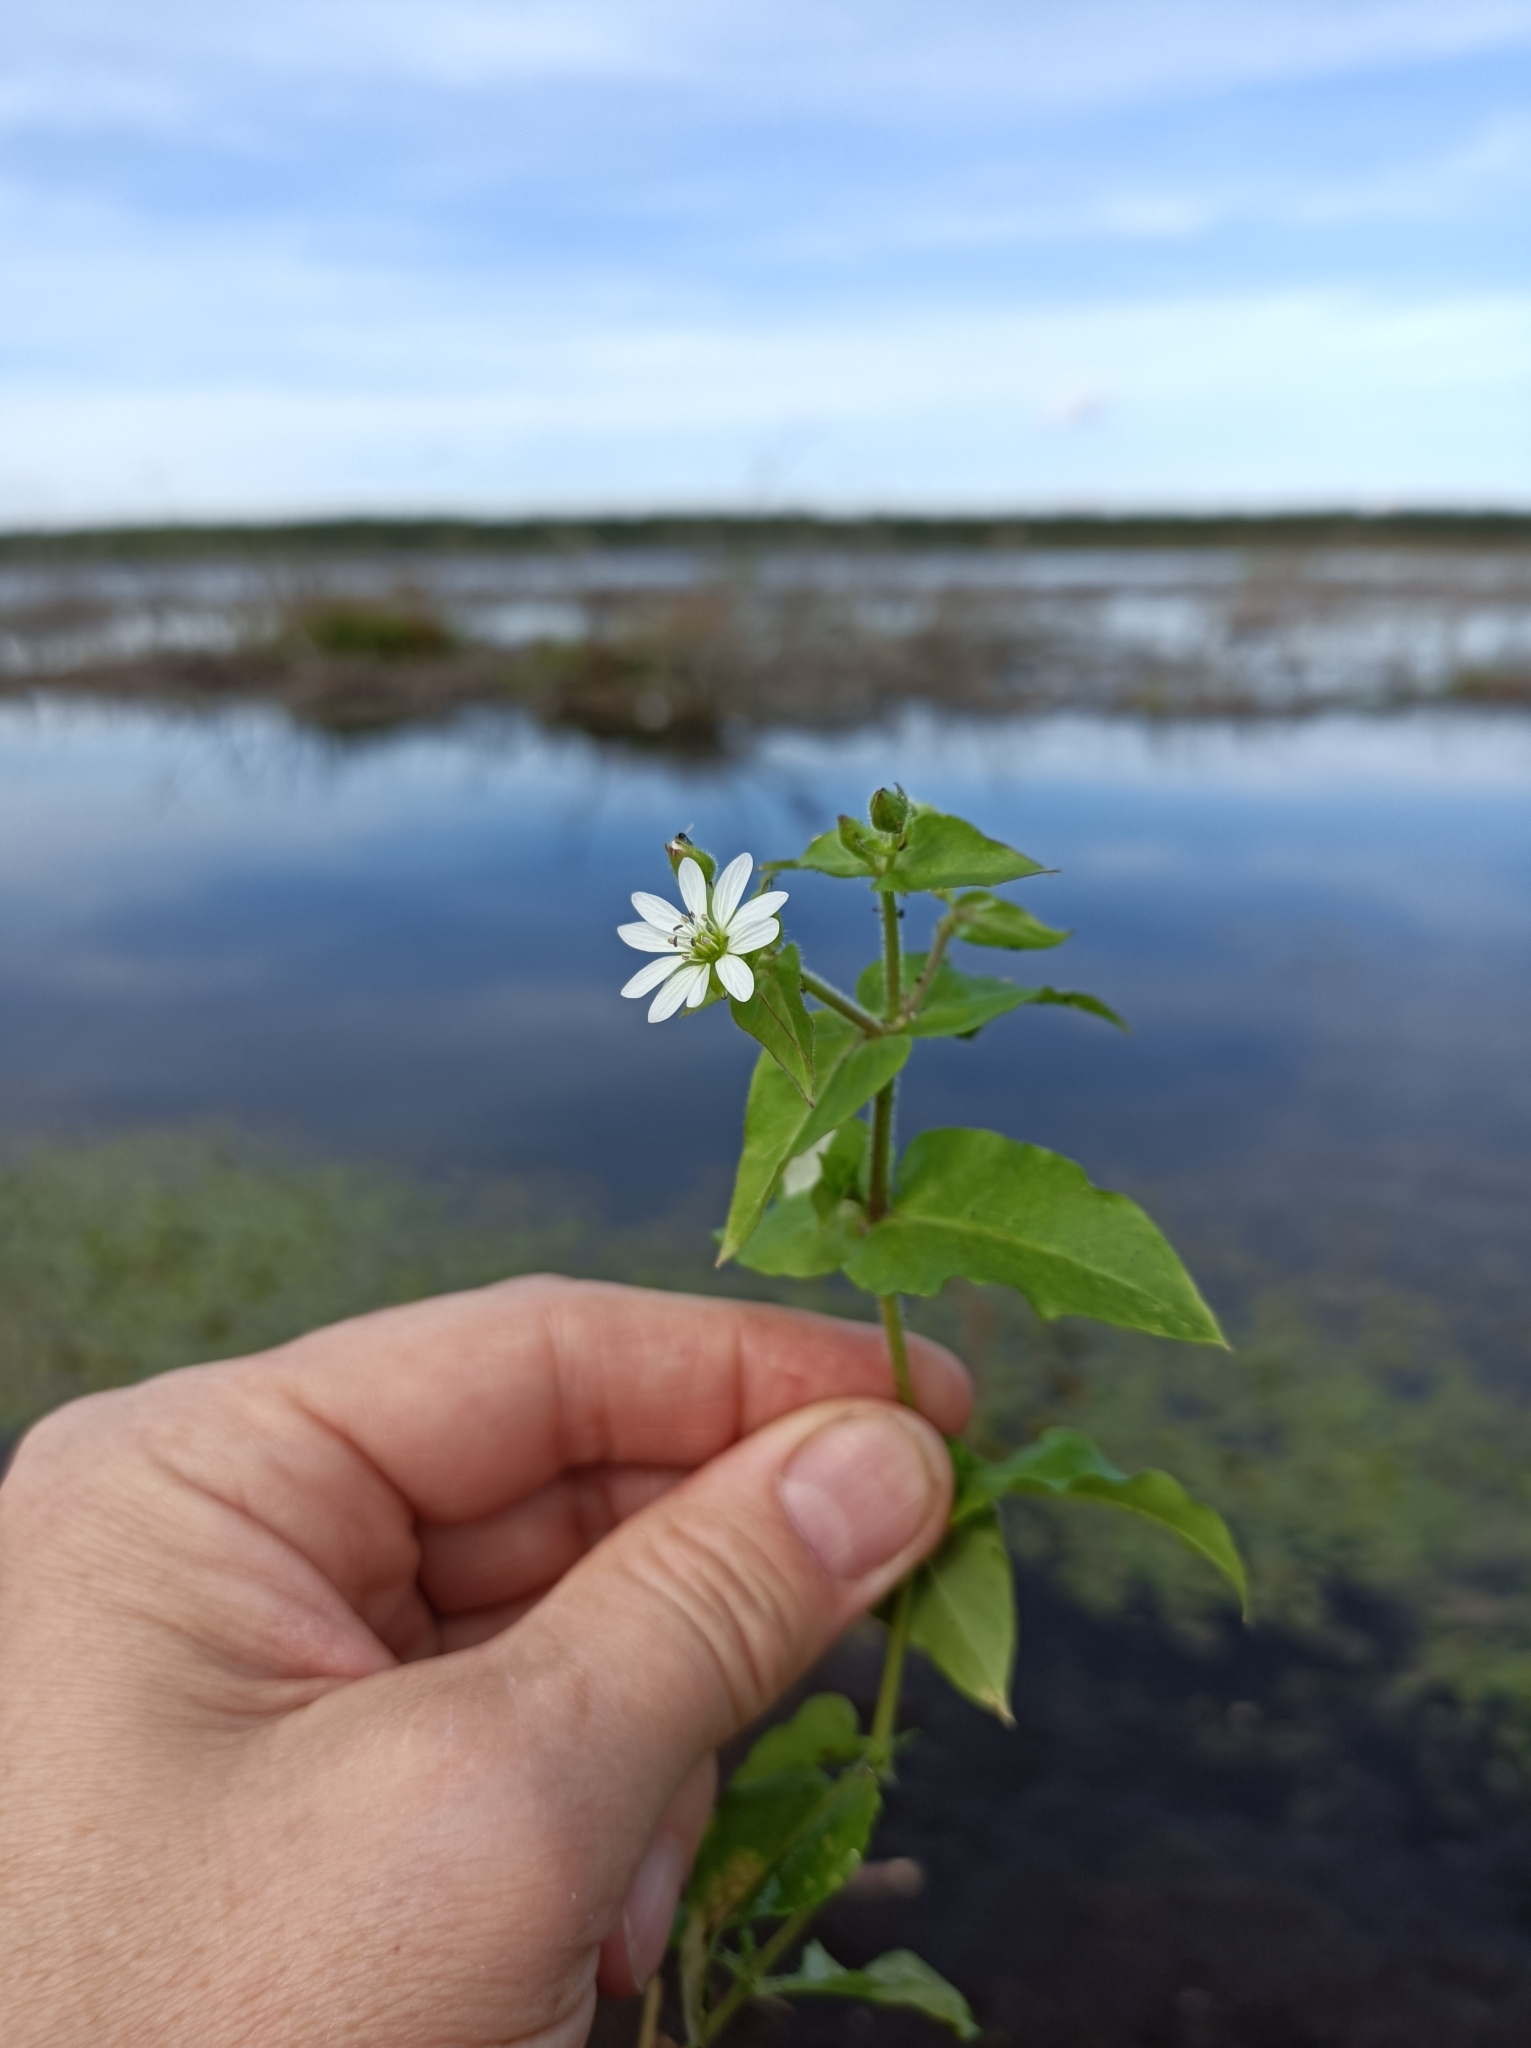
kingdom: Plantae
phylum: Tracheophyta
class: Magnoliopsida
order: Caryophyllales
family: Caryophyllaceae
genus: Stellaria
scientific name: Stellaria aquatica
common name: Water chickweed
